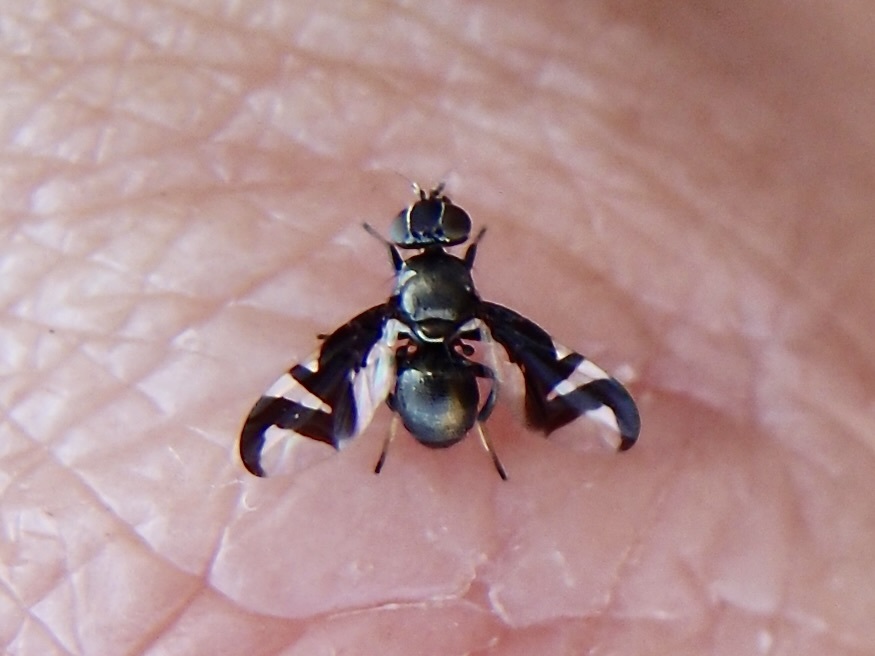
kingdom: Animalia
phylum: Arthropoda
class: Insecta
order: Diptera
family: Platystomatidae
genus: Rivellia
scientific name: Rivellia wulpiana
